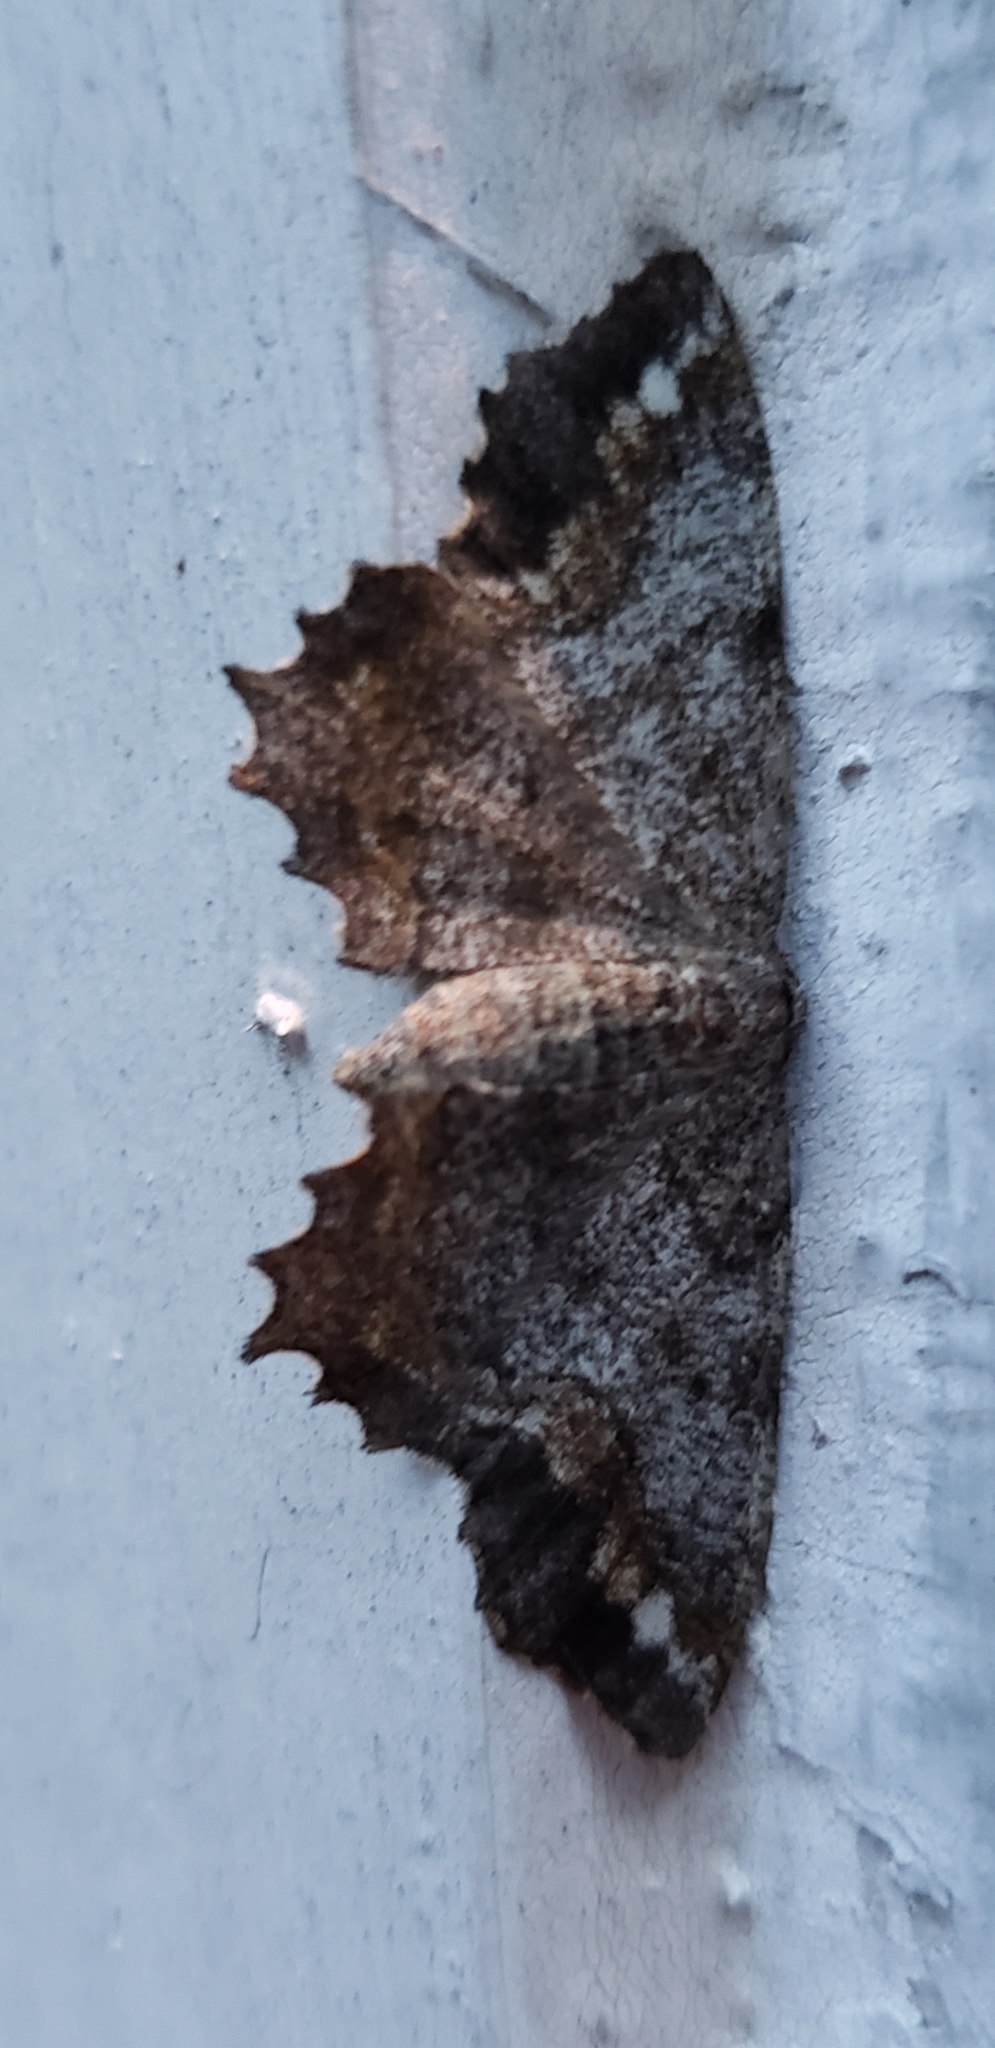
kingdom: Animalia
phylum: Arthropoda
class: Insecta
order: Lepidoptera
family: Geometridae
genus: Hypagyrtis
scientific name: Hypagyrtis unipunctata
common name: One-spotted variant
